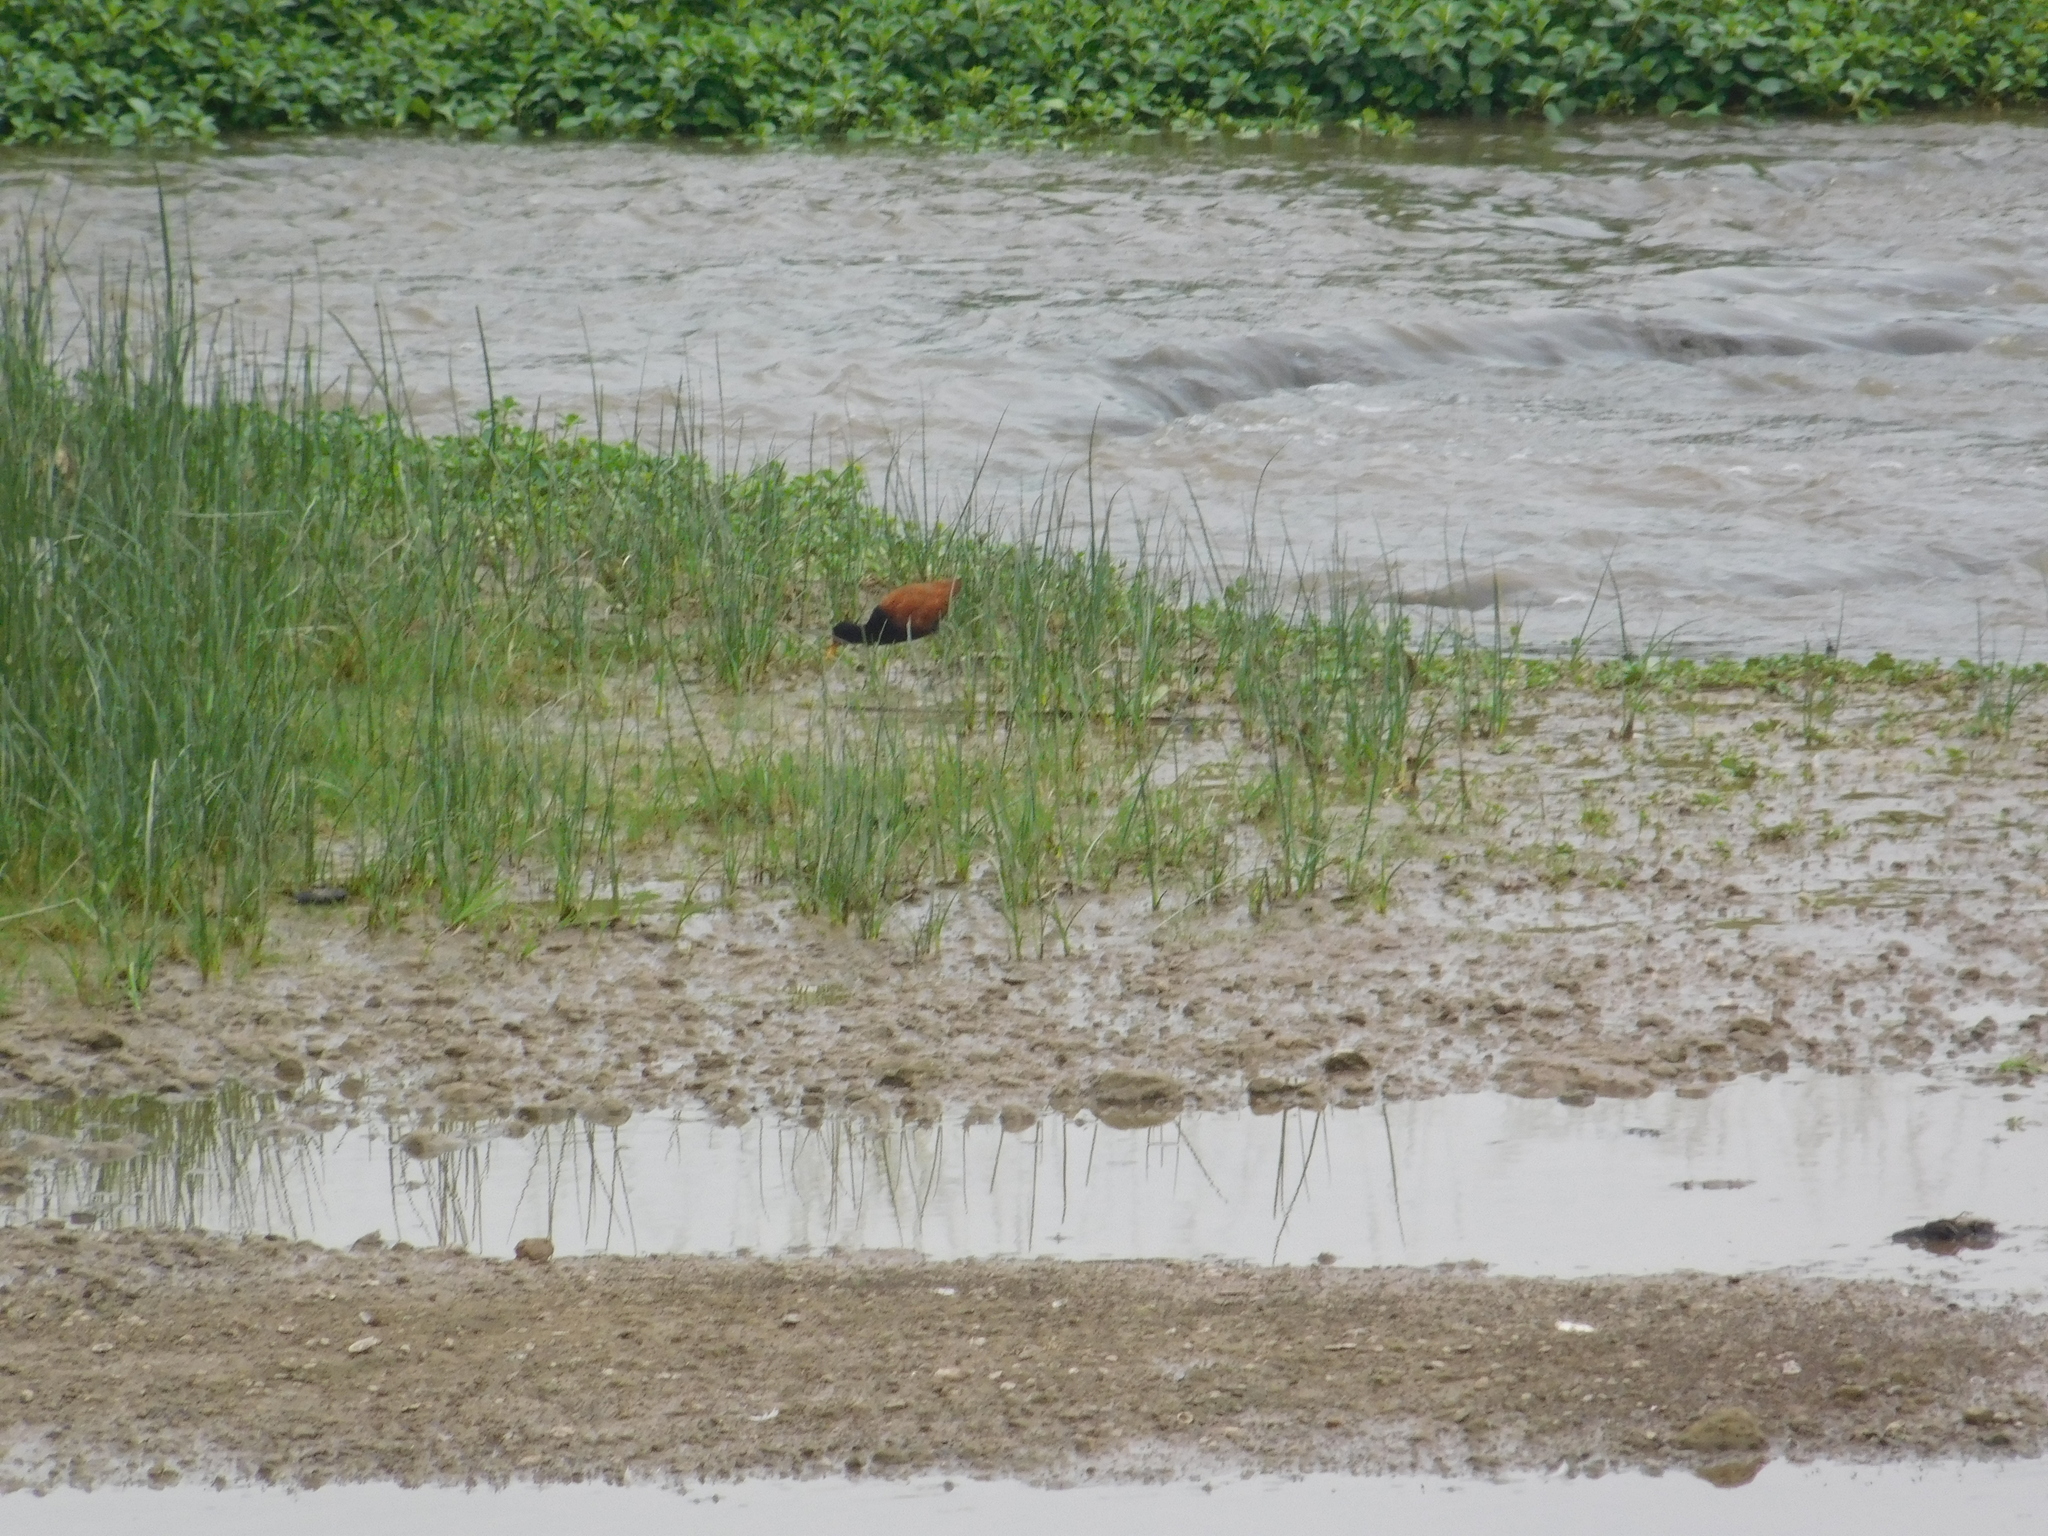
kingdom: Animalia
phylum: Chordata
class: Aves
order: Charadriiformes
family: Jacanidae
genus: Jacana
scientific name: Jacana jacana
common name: Wattled jacana
